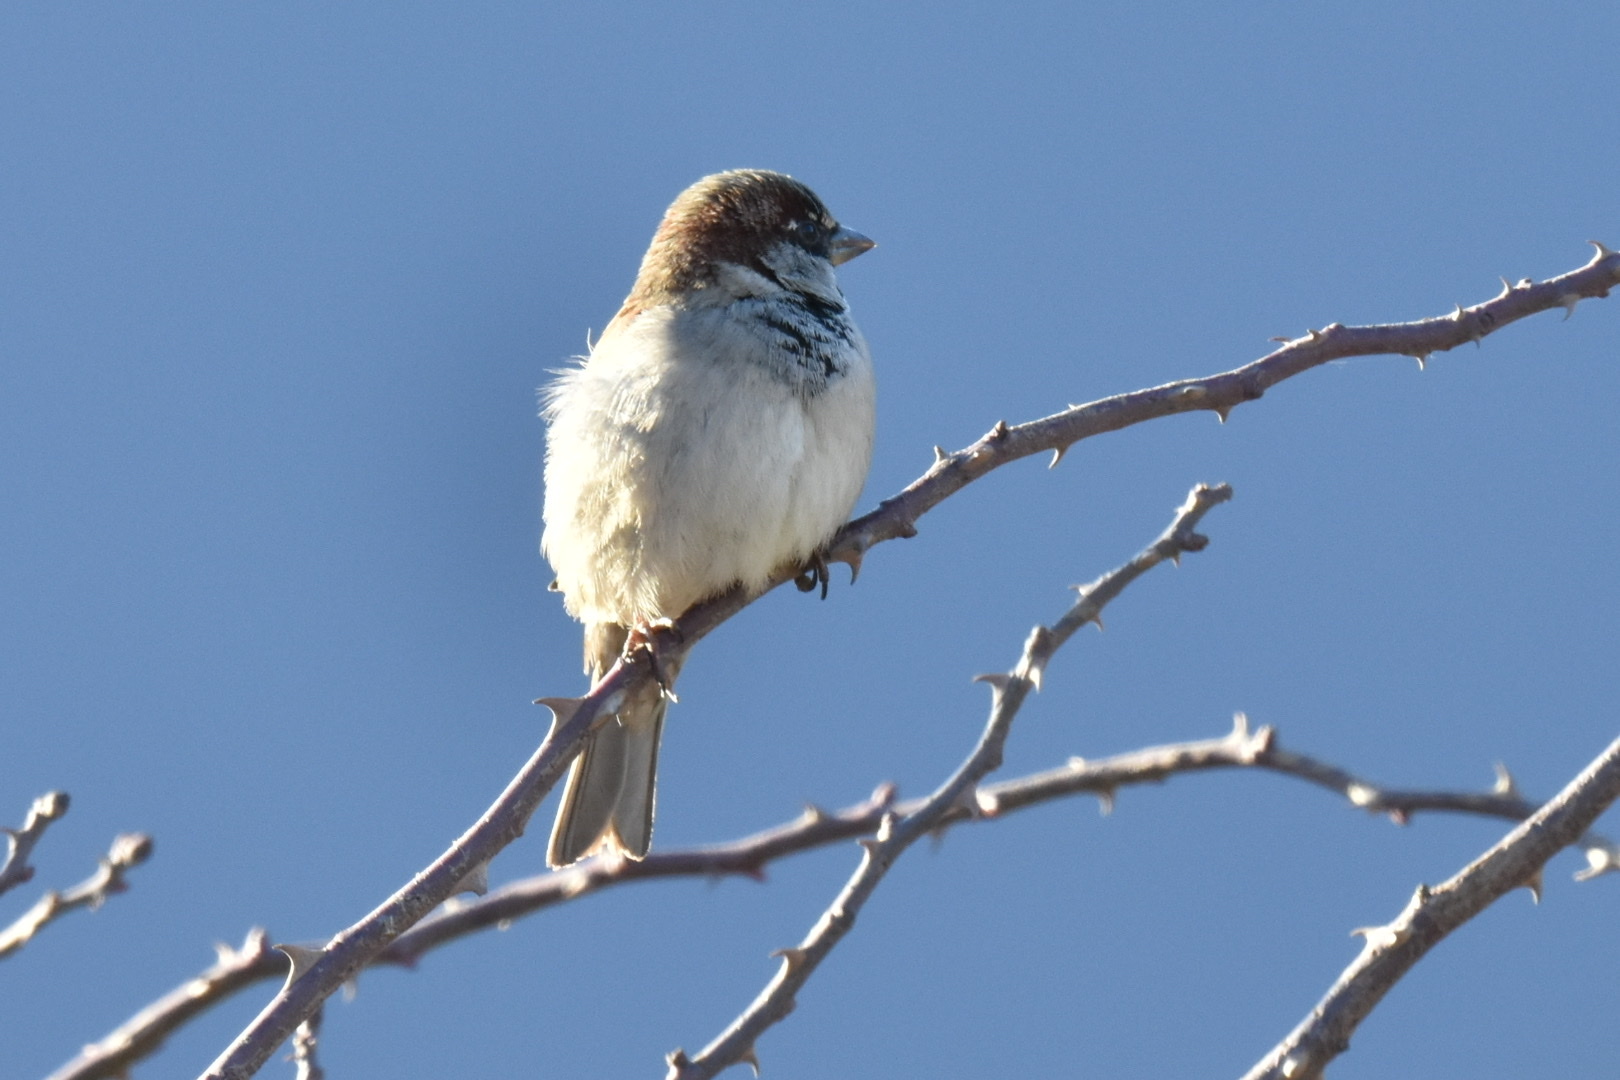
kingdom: Animalia
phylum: Chordata
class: Aves
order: Passeriformes
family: Passeridae
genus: Passer
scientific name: Passer domesticus
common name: House sparrow
